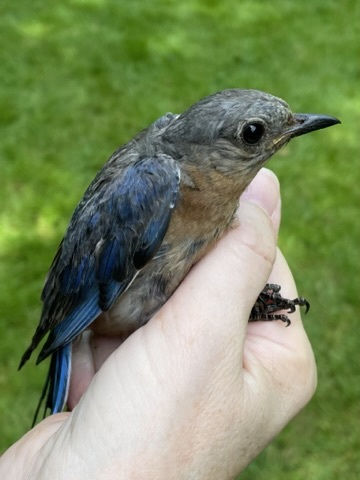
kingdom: Animalia
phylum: Chordata
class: Aves
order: Passeriformes
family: Turdidae
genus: Sialia
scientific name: Sialia sialis
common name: Eastern bluebird
